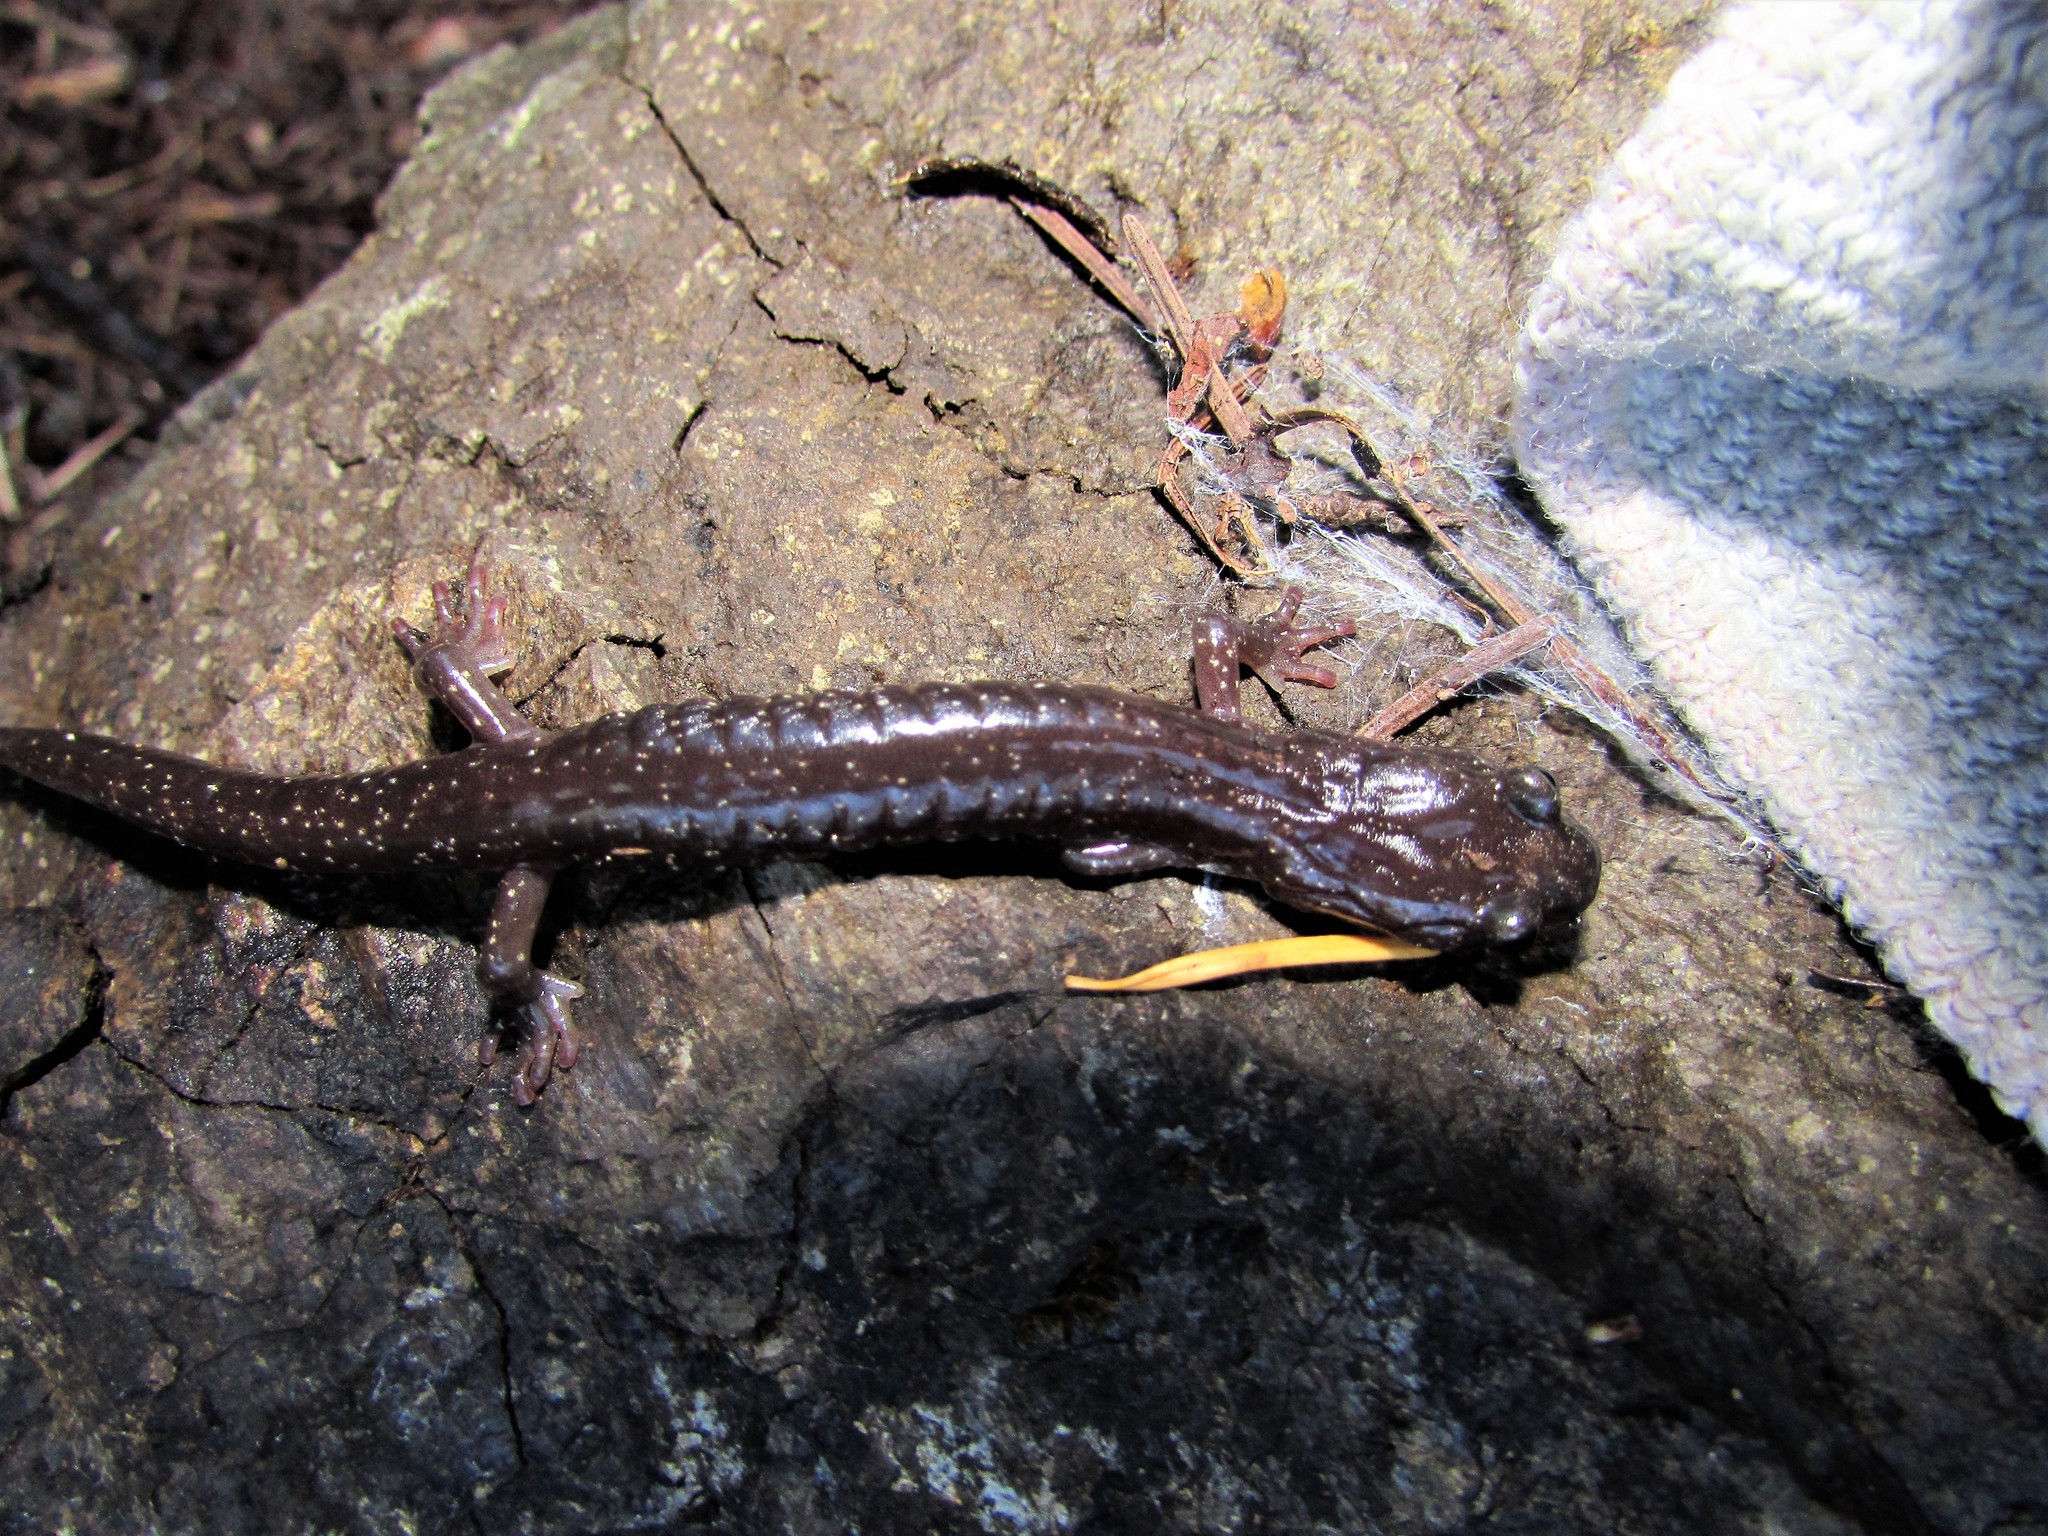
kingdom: Animalia
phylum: Chordata
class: Amphibia
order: Caudata
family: Plethodontidae
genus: Aneides
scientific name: Aneides ferreus
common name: Clouded salamander
